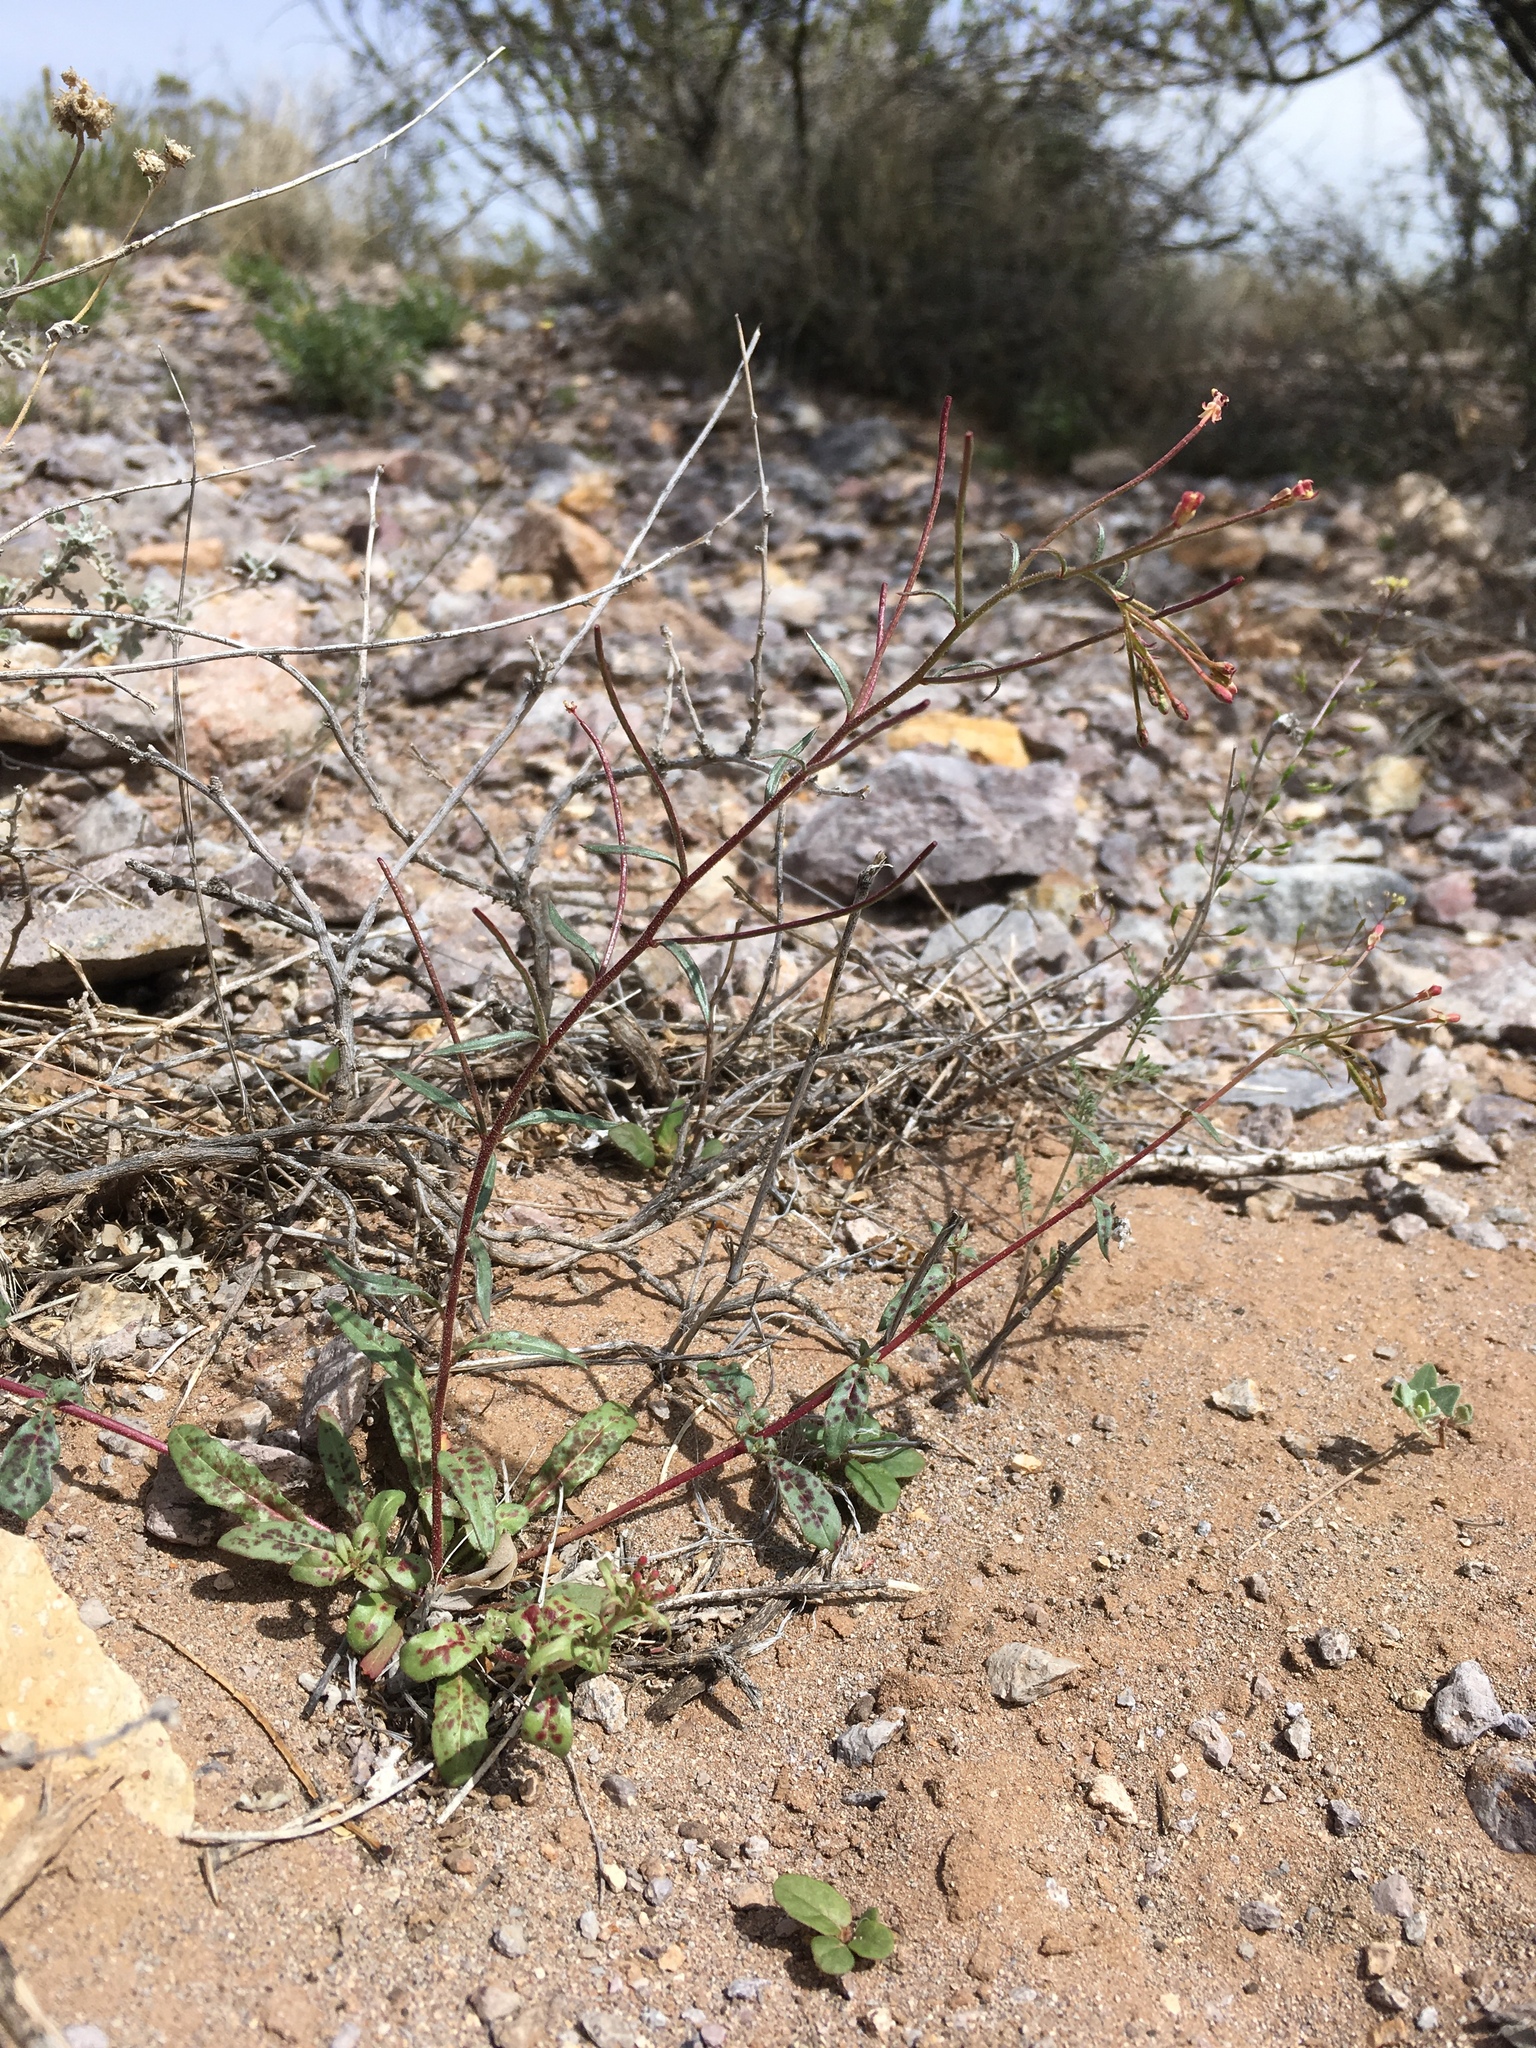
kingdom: Plantae
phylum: Tracheophyta
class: Magnoliopsida
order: Myrtales
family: Onagraceae
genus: Eremothera
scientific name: Eremothera chamaenerioides
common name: Longcapsule suncup
